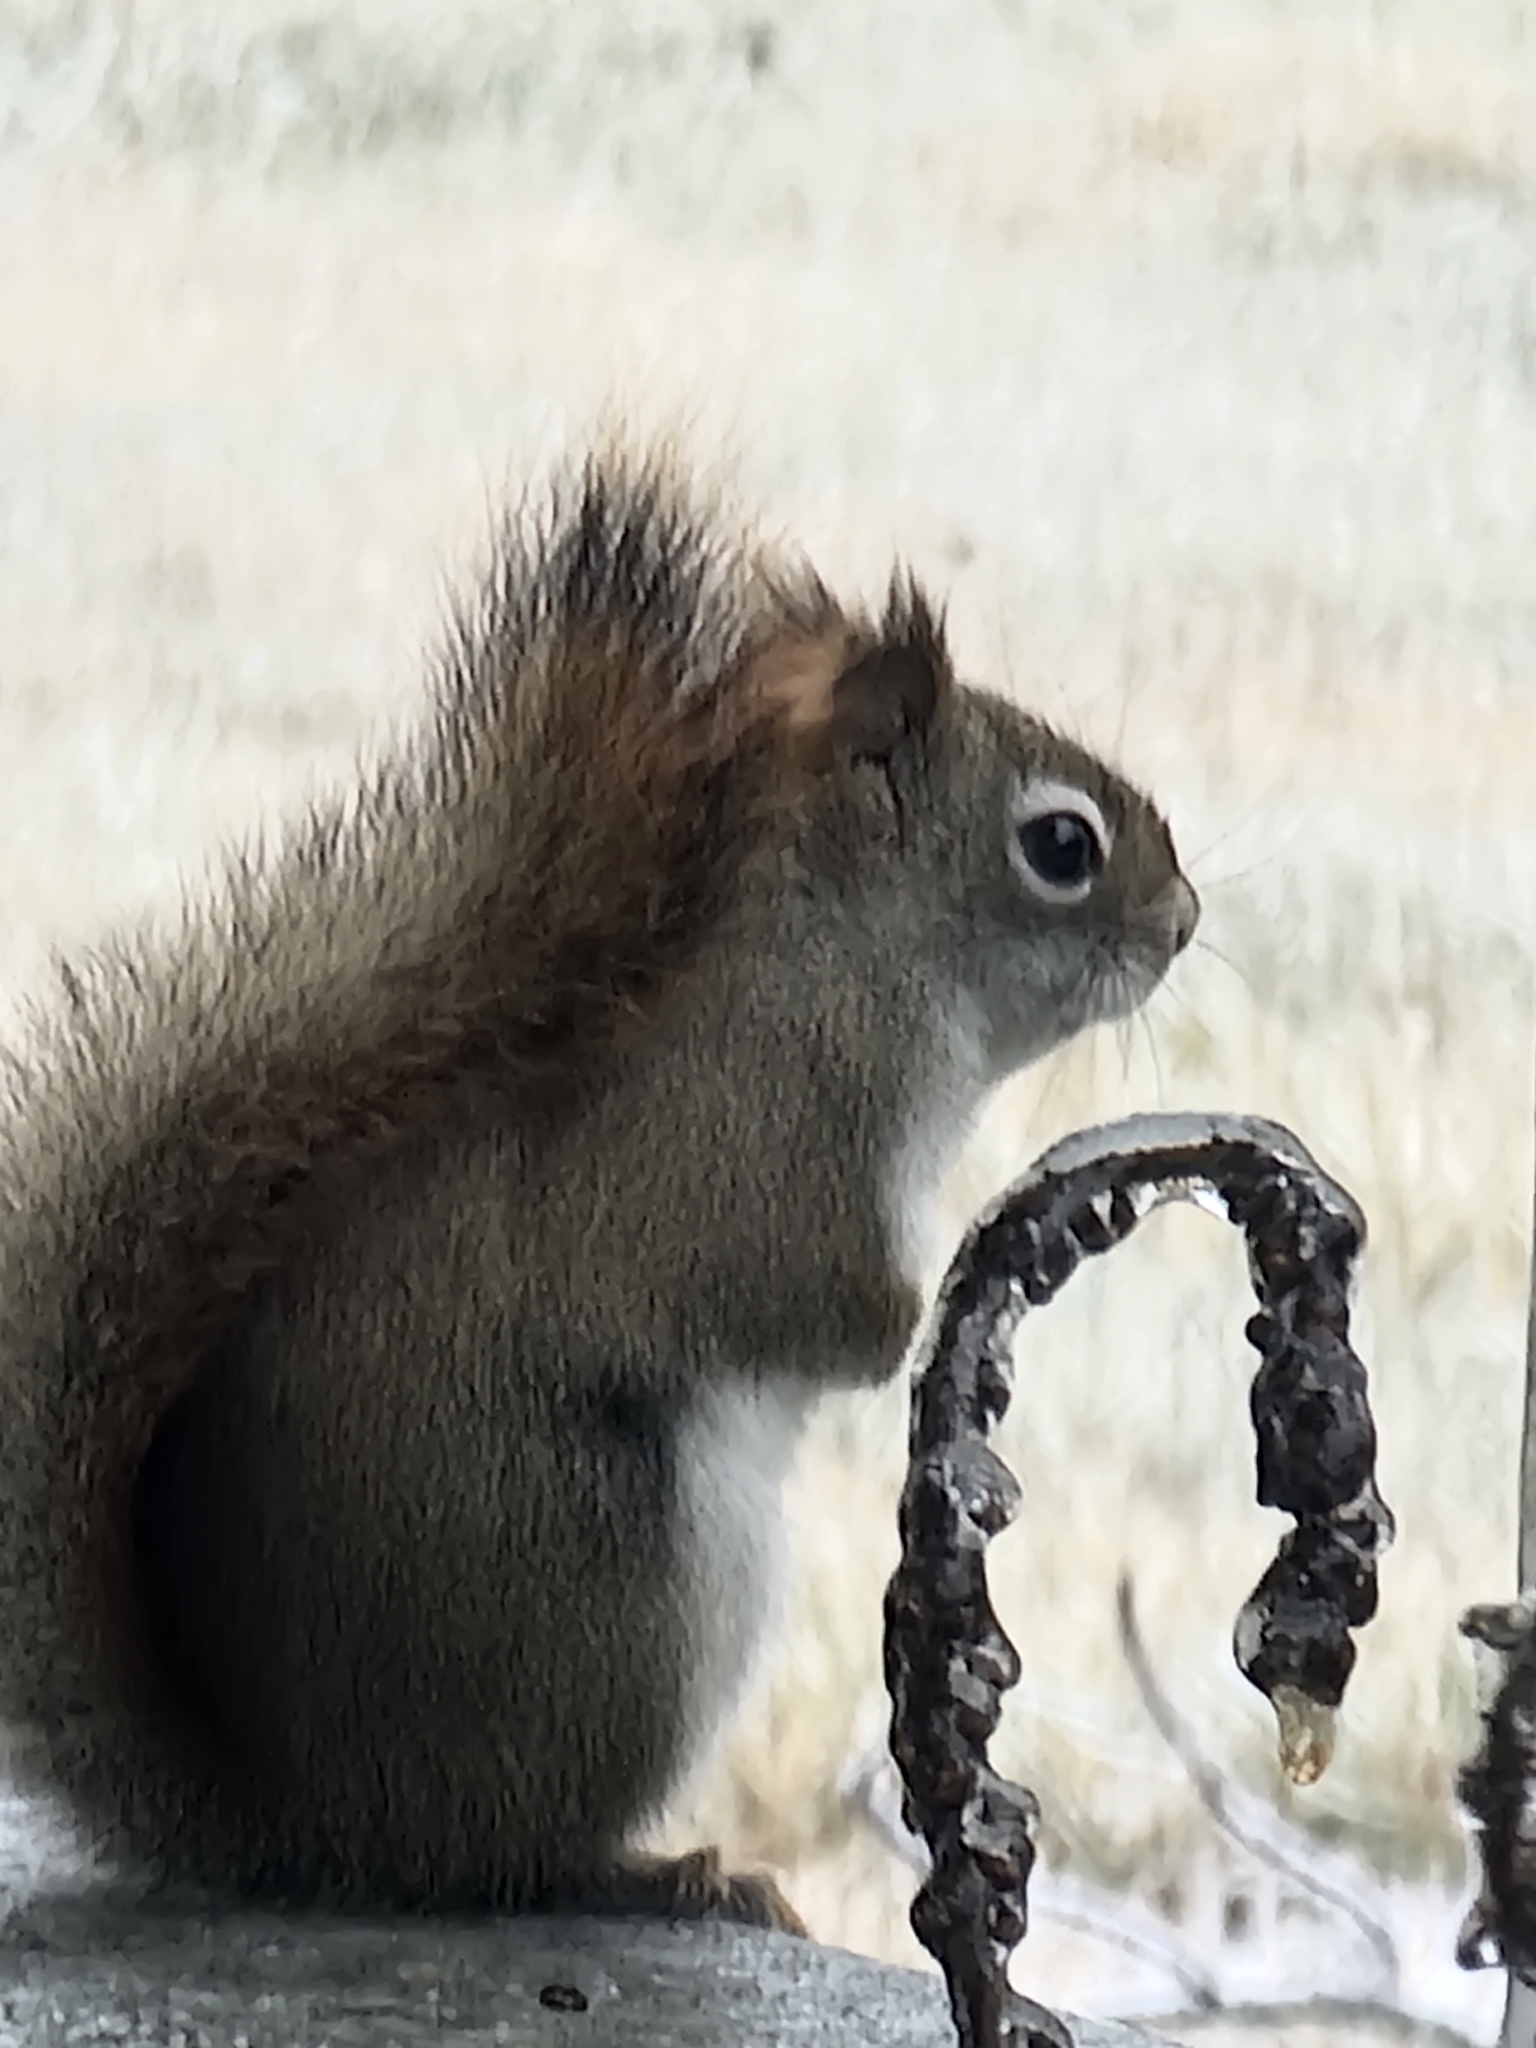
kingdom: Animalia
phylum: Chordata
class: Mammalia
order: Rodentia
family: Sciuridae
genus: Tamiasciurus
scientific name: Tamiasciurus hudsonicus
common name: Red squirrel
